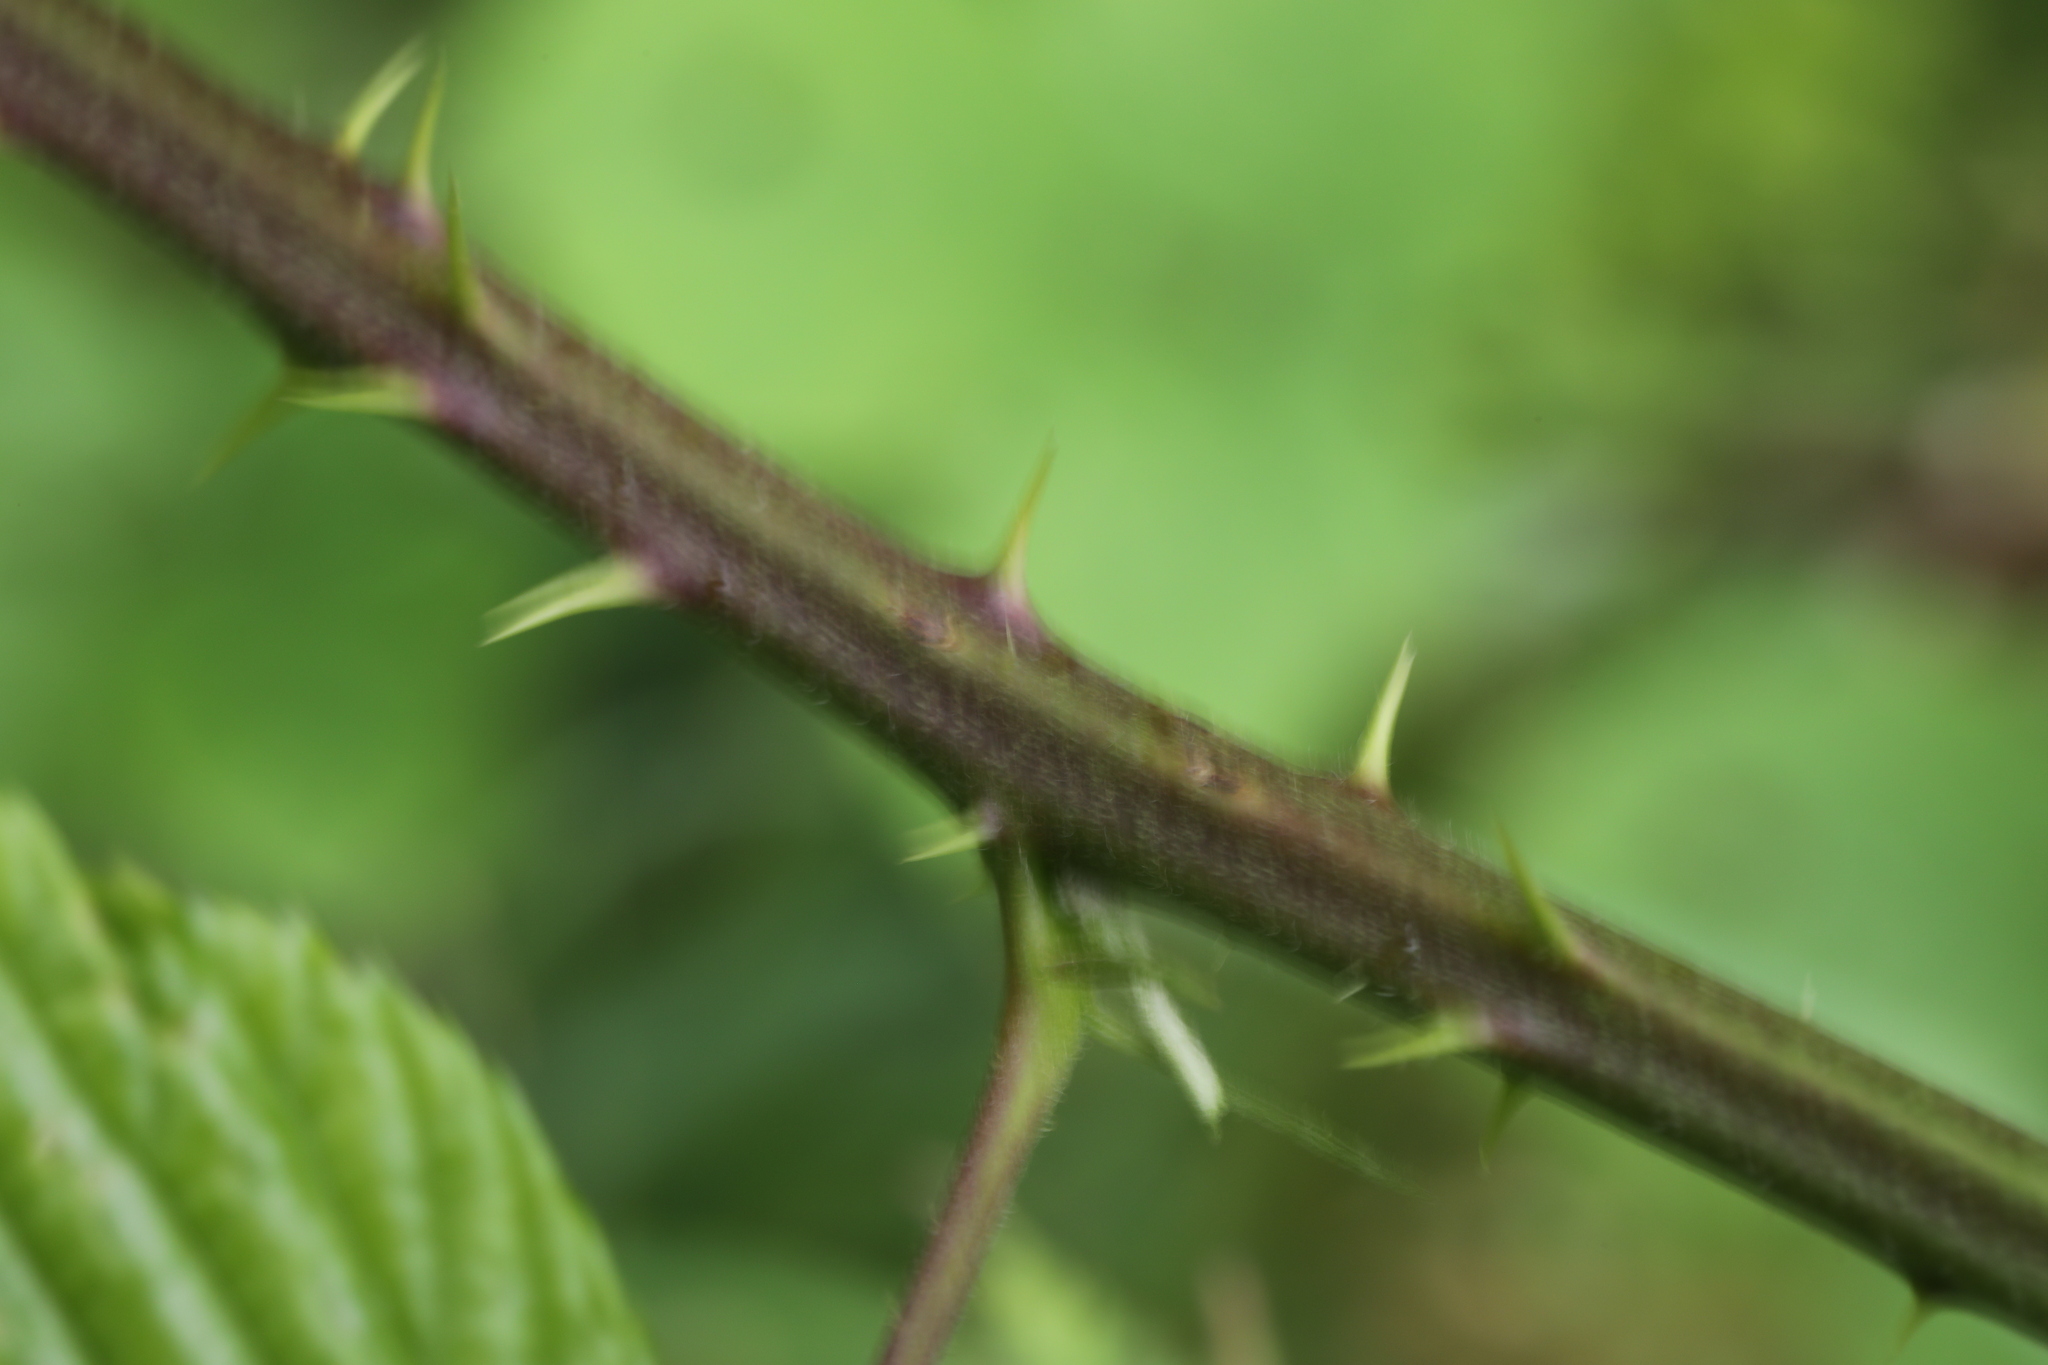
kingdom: Plantae
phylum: Tracheophyta
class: Magnoliopsida
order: Rosales
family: Rosaceae
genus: Rubus
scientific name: Rubus fruticosus
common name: Blackberry, bramble
